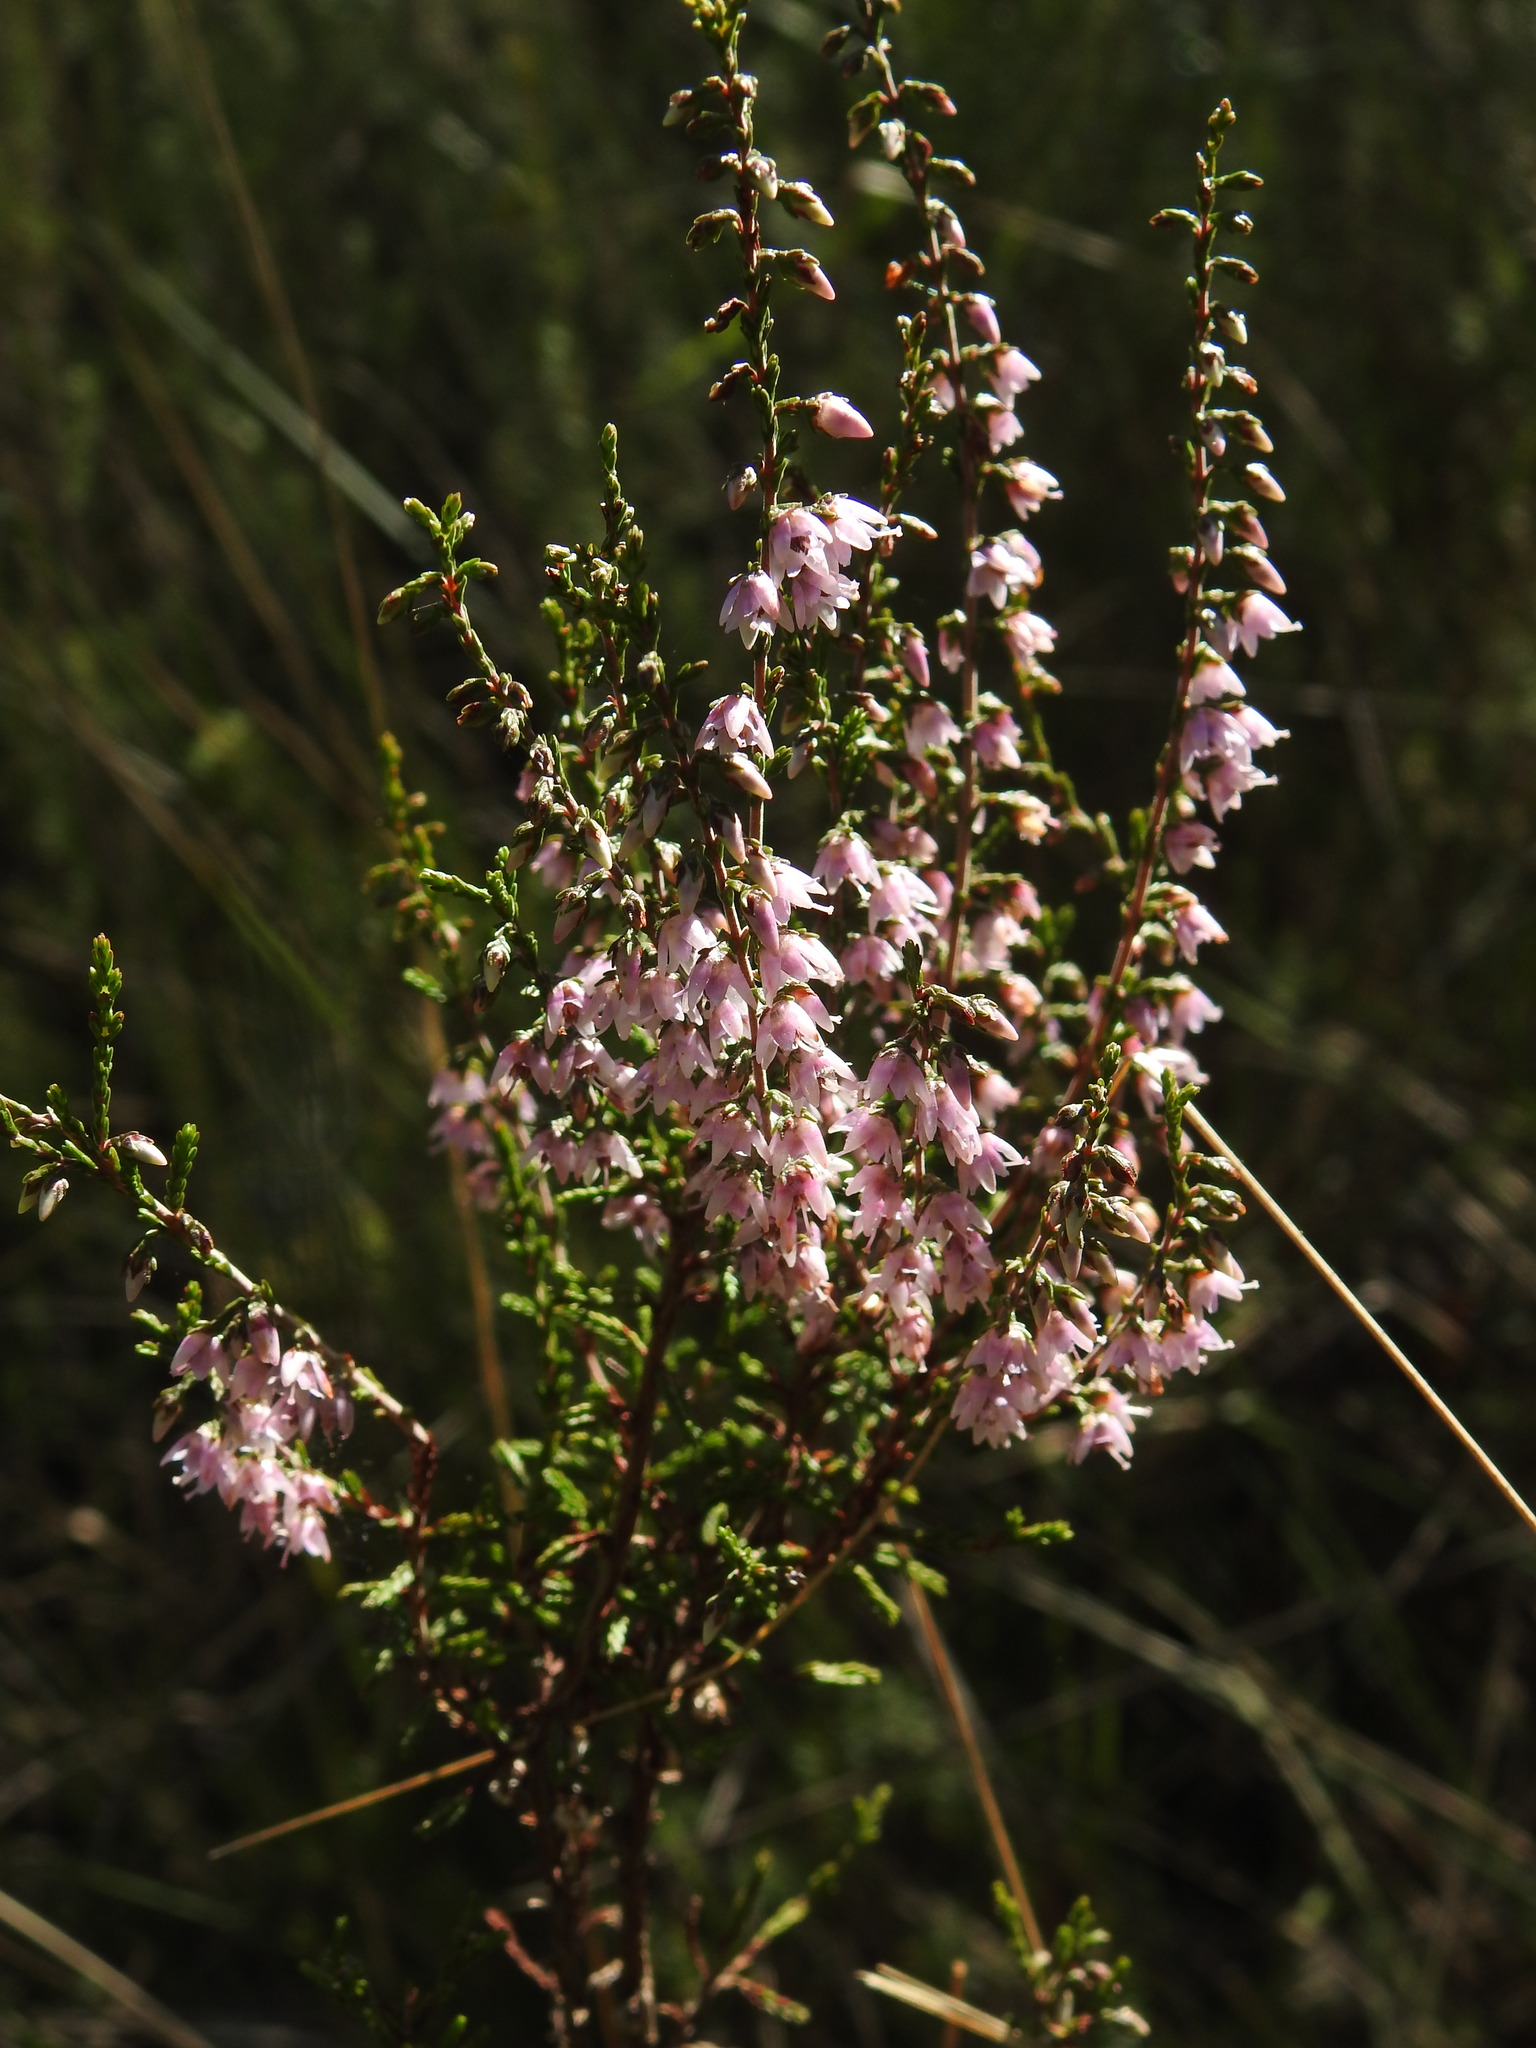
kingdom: Plantae
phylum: Tracheophyta
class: Magnoliopsida
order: Ericales
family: Ericaceae
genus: Calluna
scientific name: Calluna vulgaris
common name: Heather
